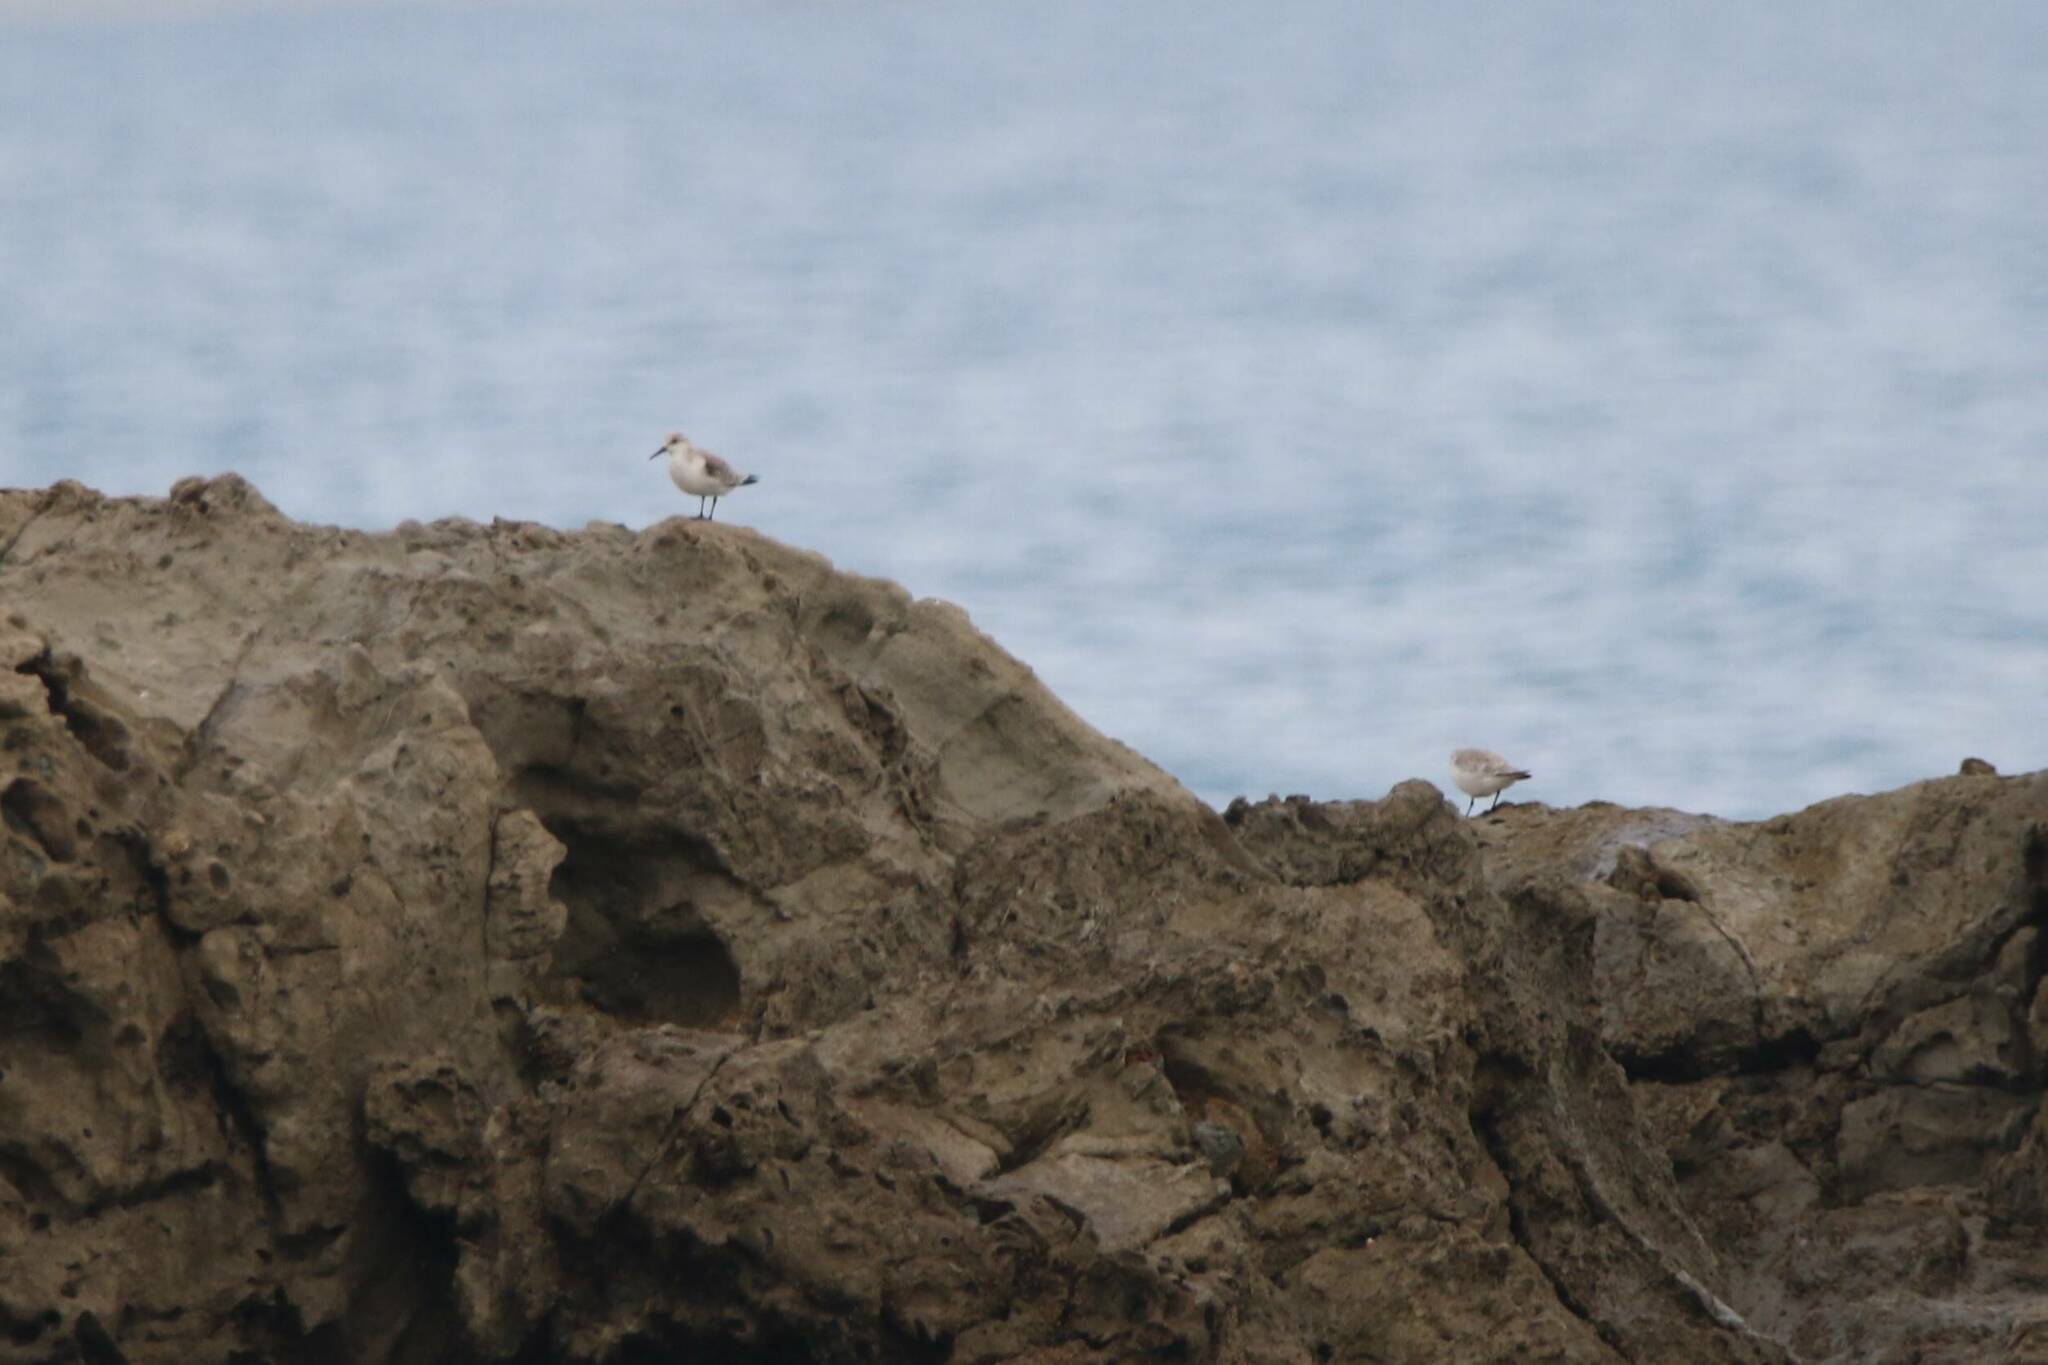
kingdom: Animalia
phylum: Chordata
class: Aves
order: Charadriiformes
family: Scolopacidae
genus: Calidris
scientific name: Calidris alba
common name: Sanderling
